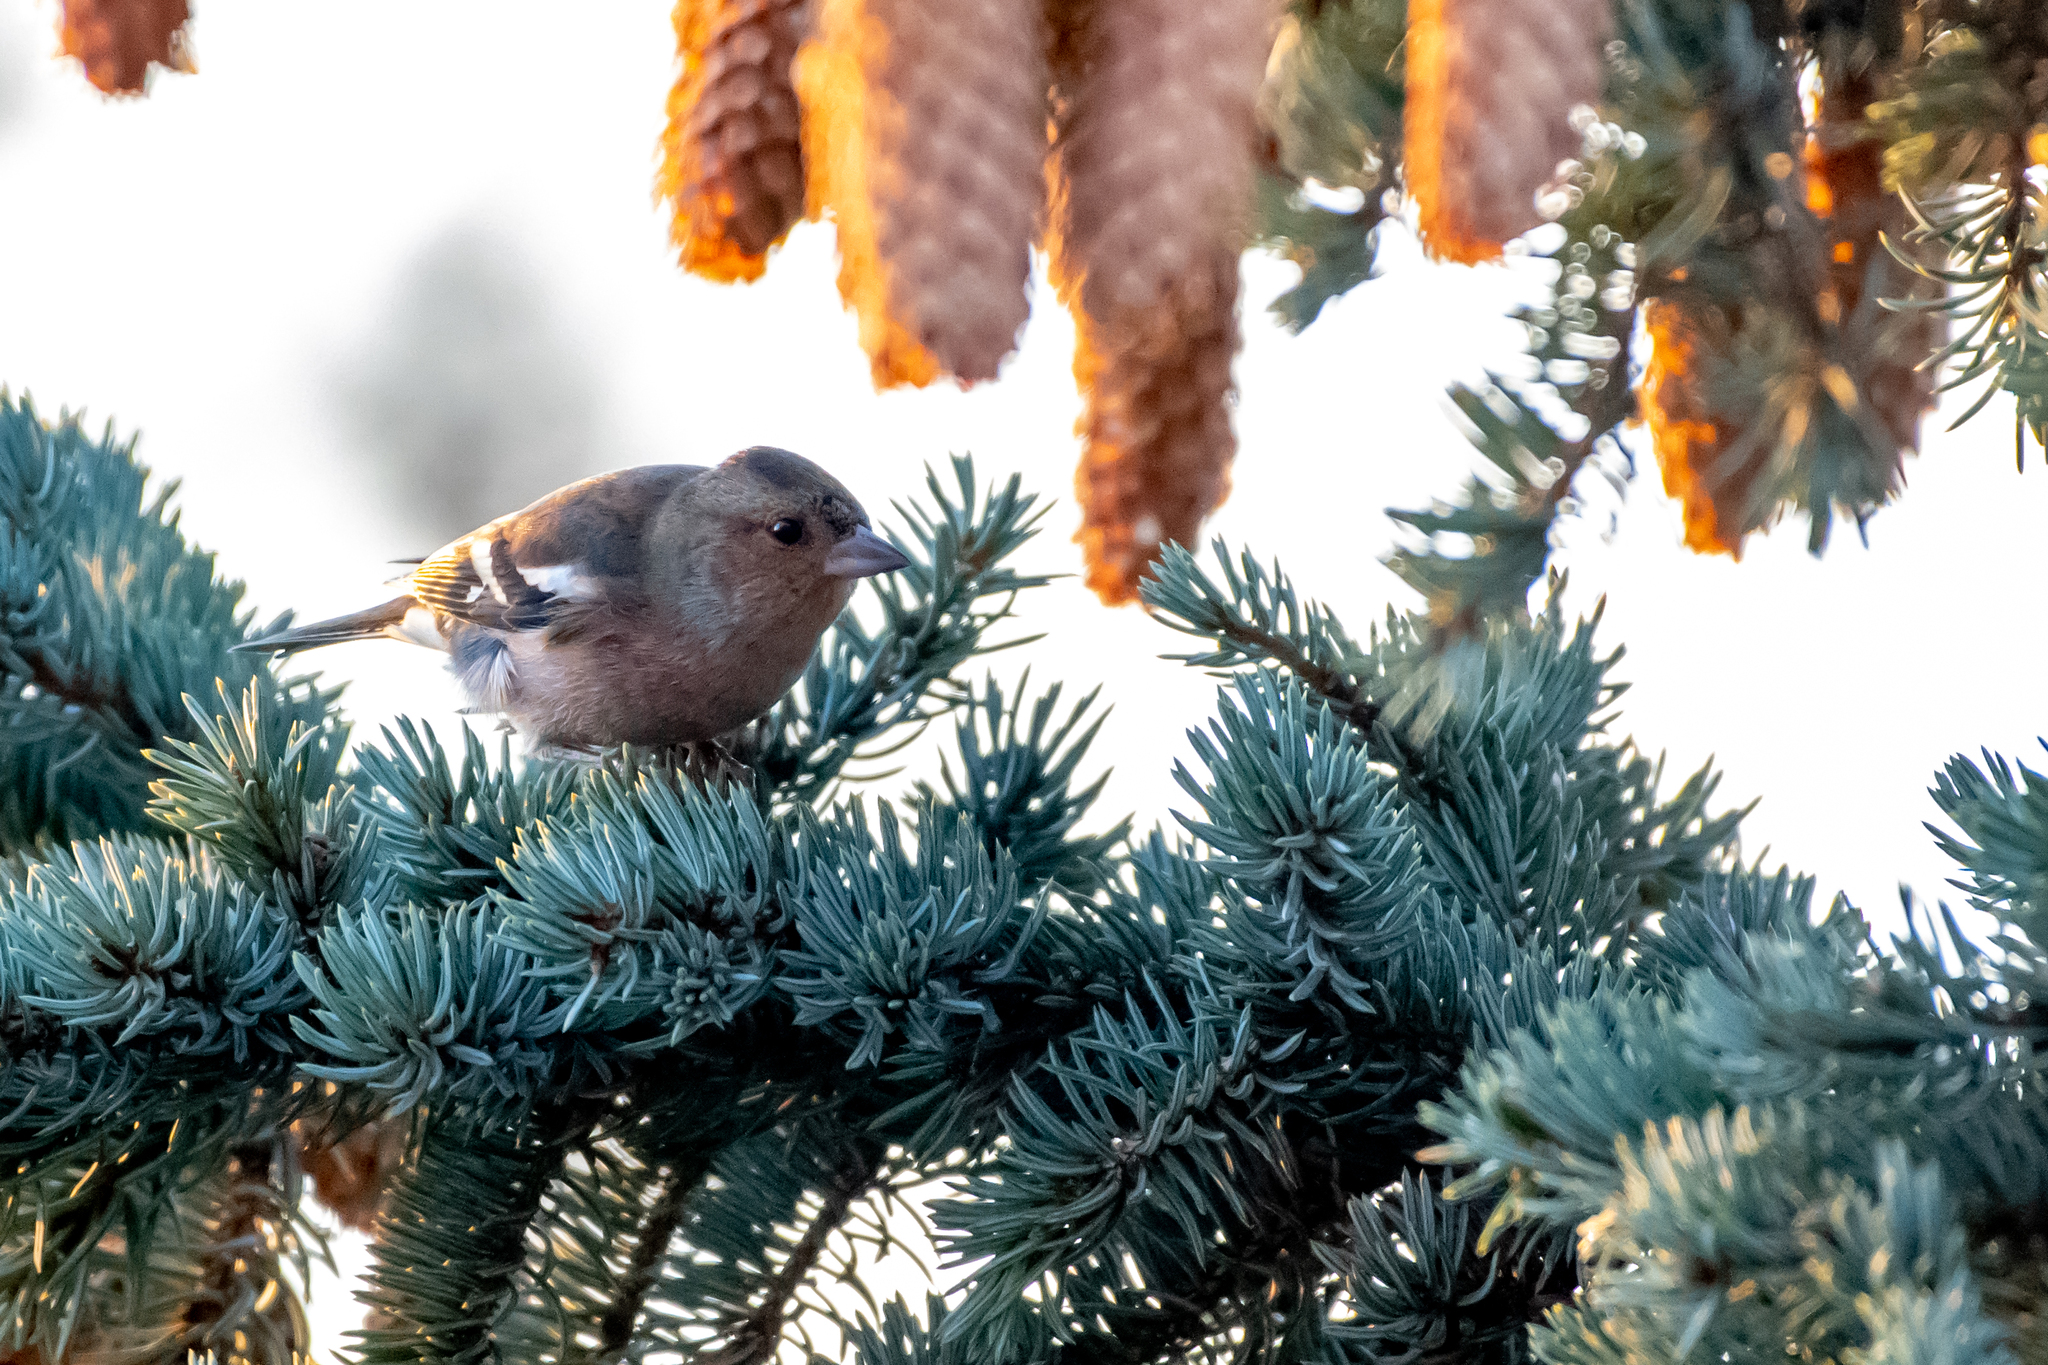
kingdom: Animalia
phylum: Chordata
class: Aves
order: Passeriformes
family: Fringillidae
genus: Fringilla
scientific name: Fringilla coelebs
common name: Common chaffinch
